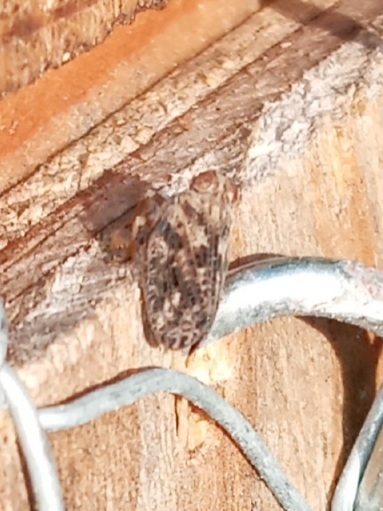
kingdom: Animalia
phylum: Arthropoda
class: Insecta
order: Hemiptera
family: Issidae
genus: Thionia
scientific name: Thionia bullata
